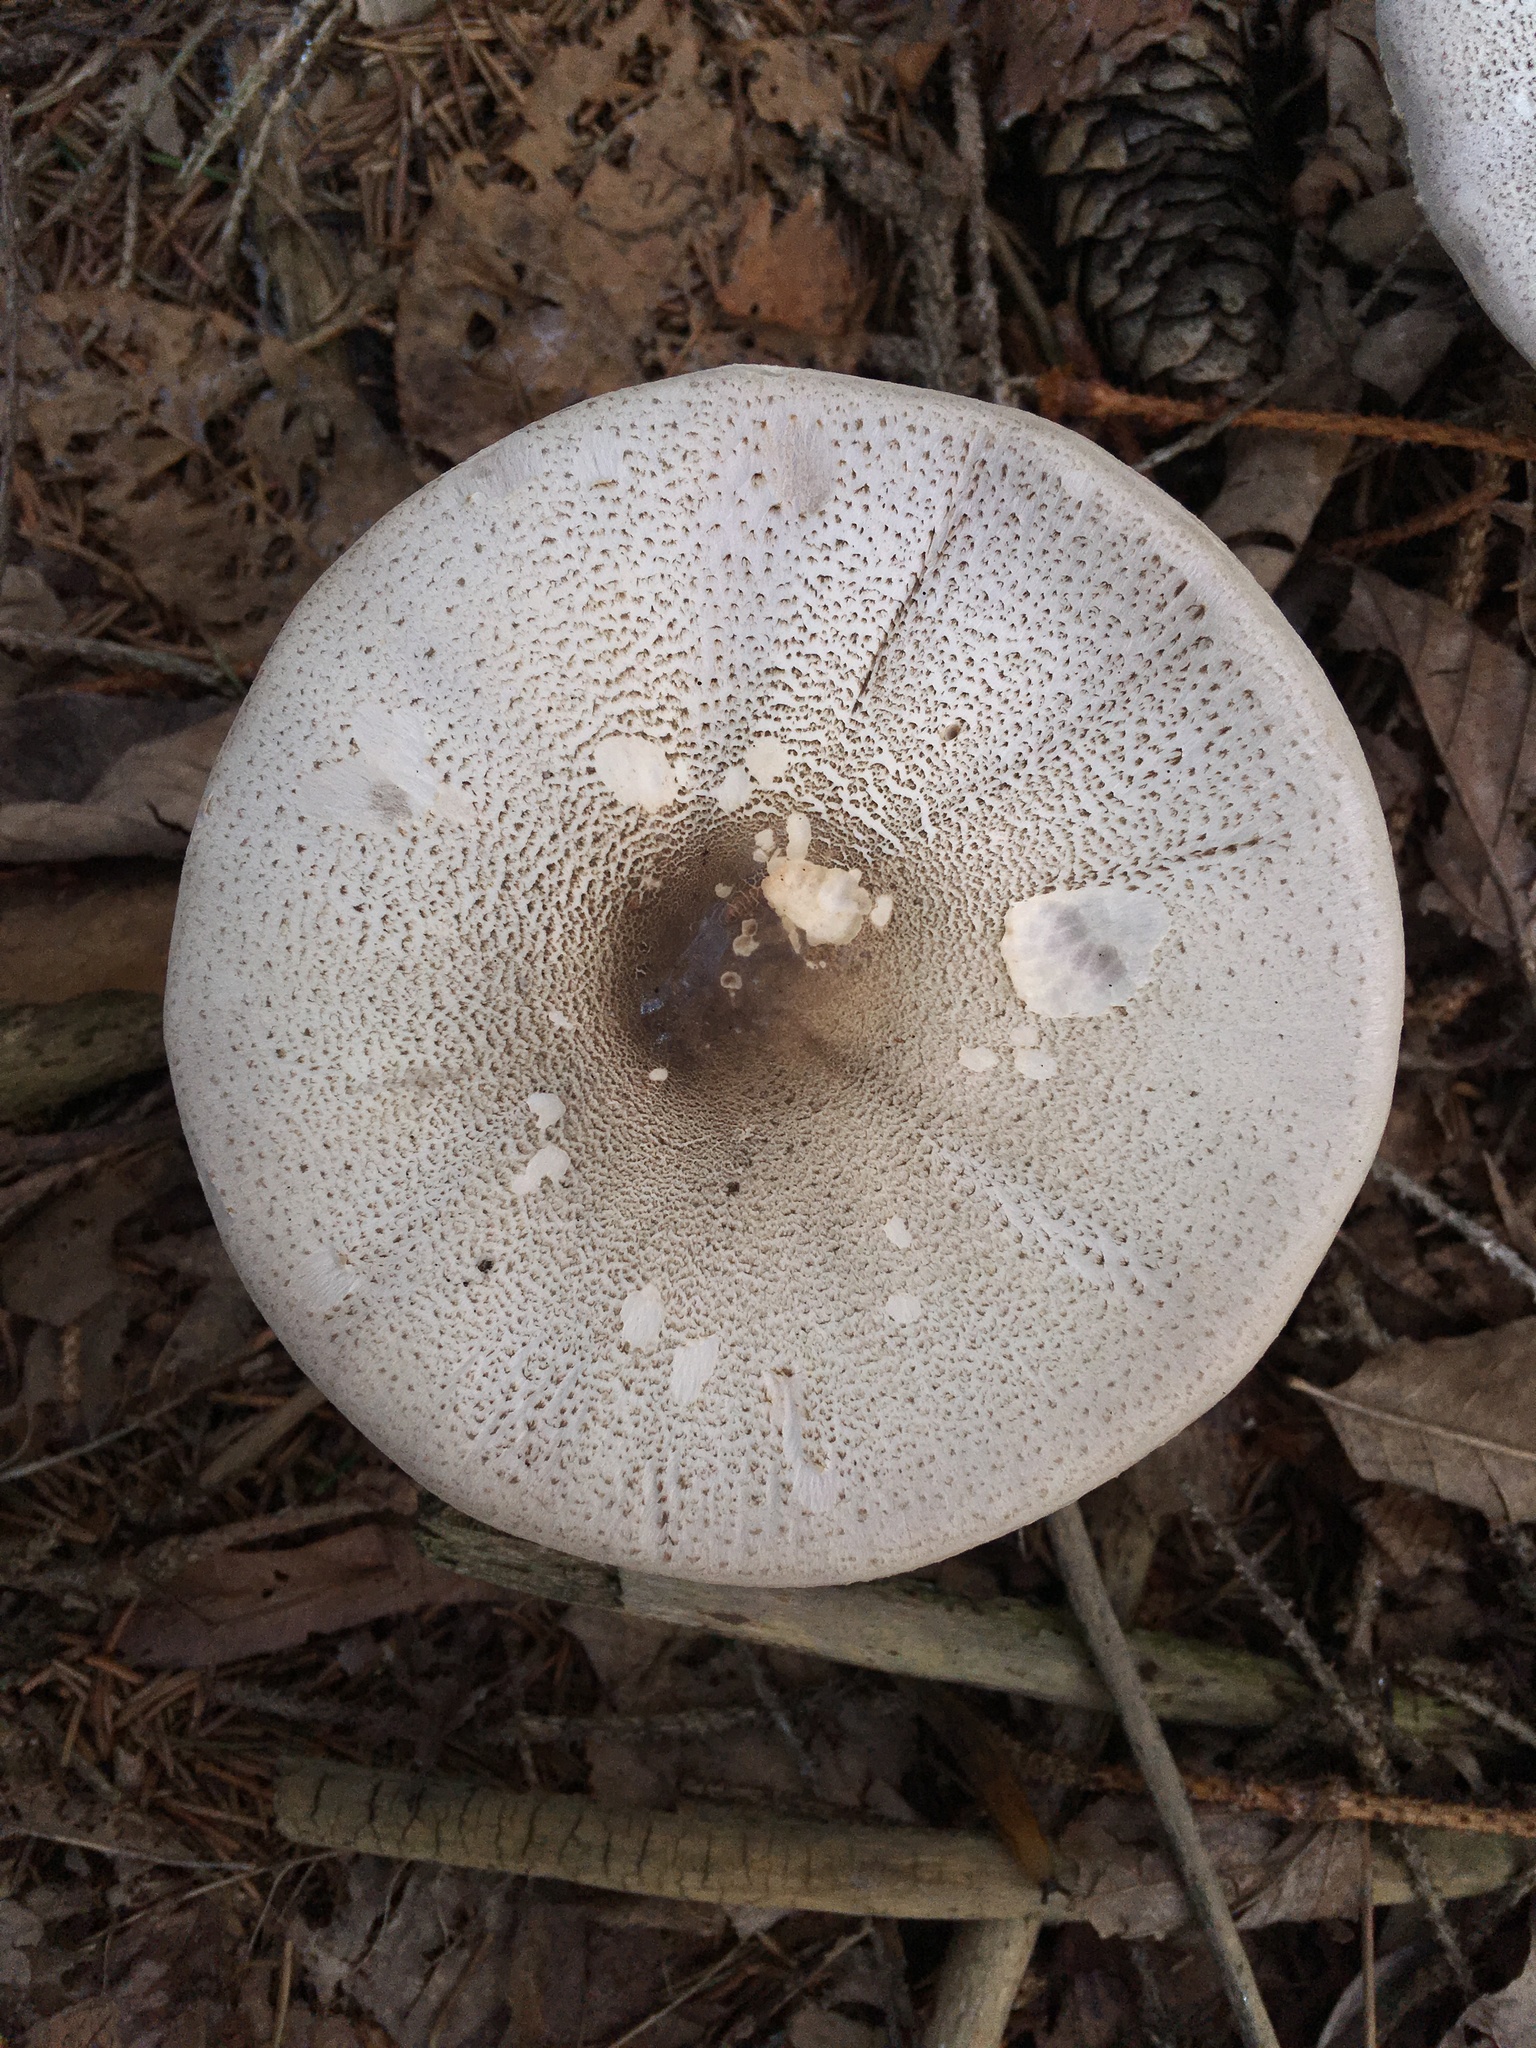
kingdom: Fungi
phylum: Basidiomycota
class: Agaricomycetes
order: Agaricales
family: Agaricaceae
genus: Agaricus
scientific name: Agaricus pocillator
